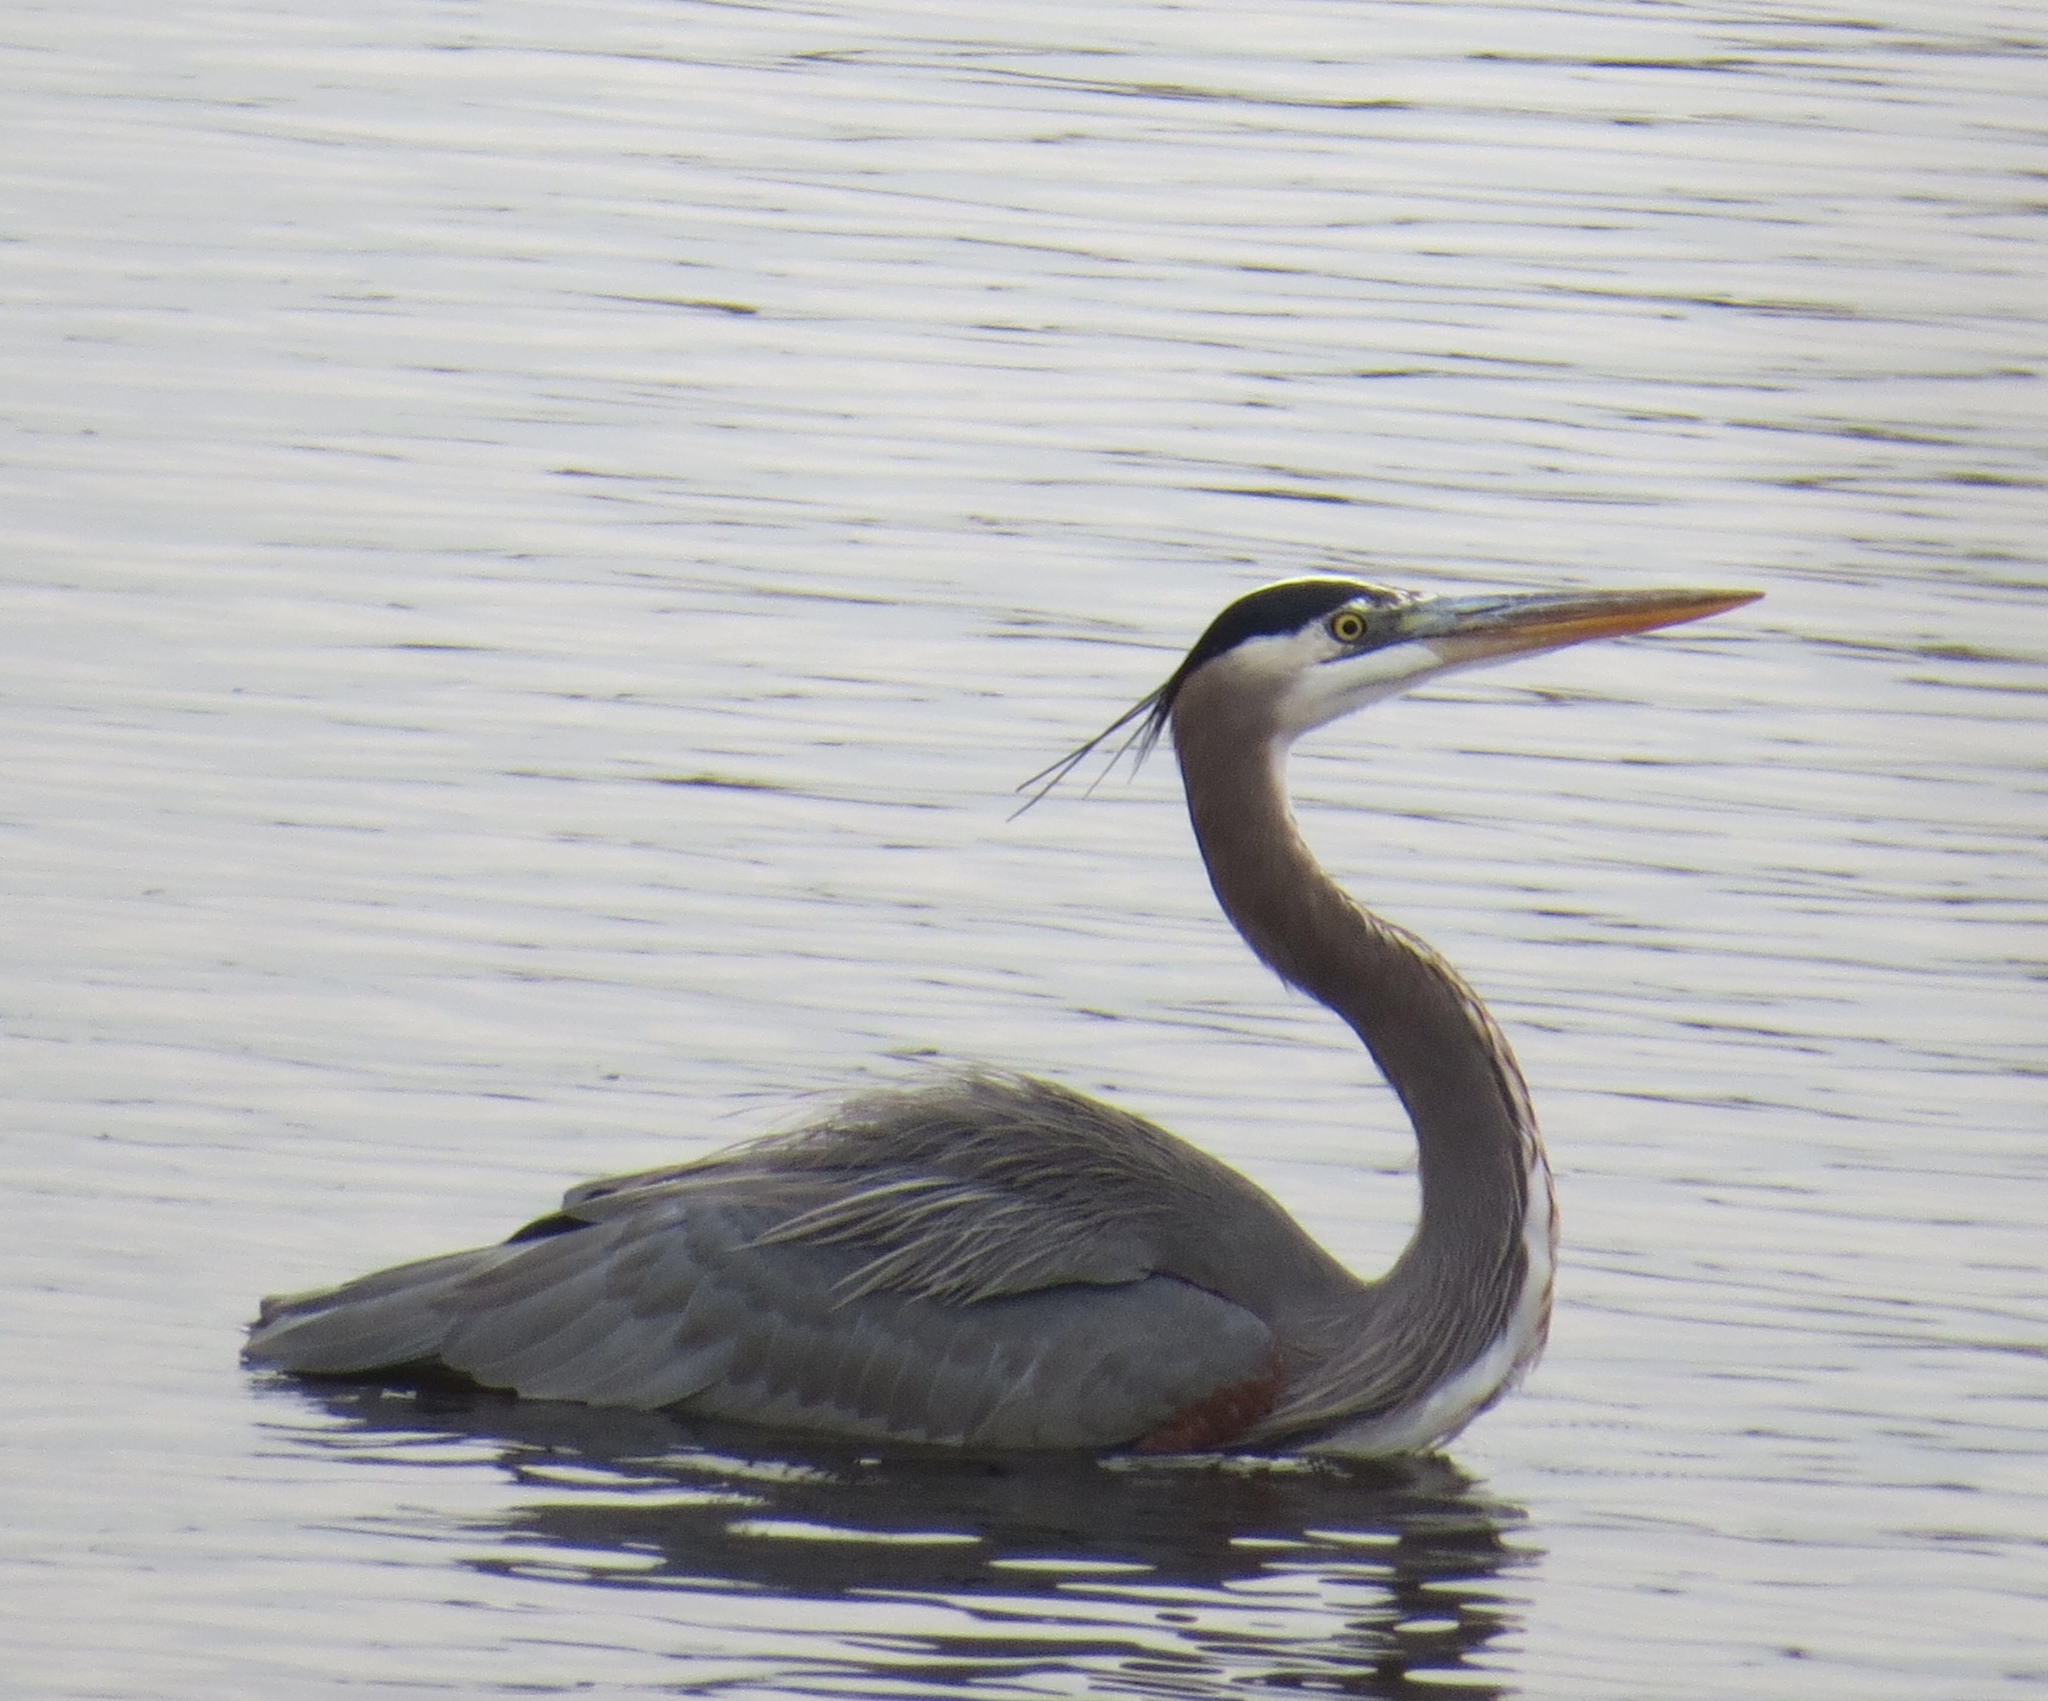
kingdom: Animalia
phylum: Chordata
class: Aves
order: Pelecaniformes
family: Ardeidae
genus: Ardea
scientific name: Ardea herodias
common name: Great blue heron
